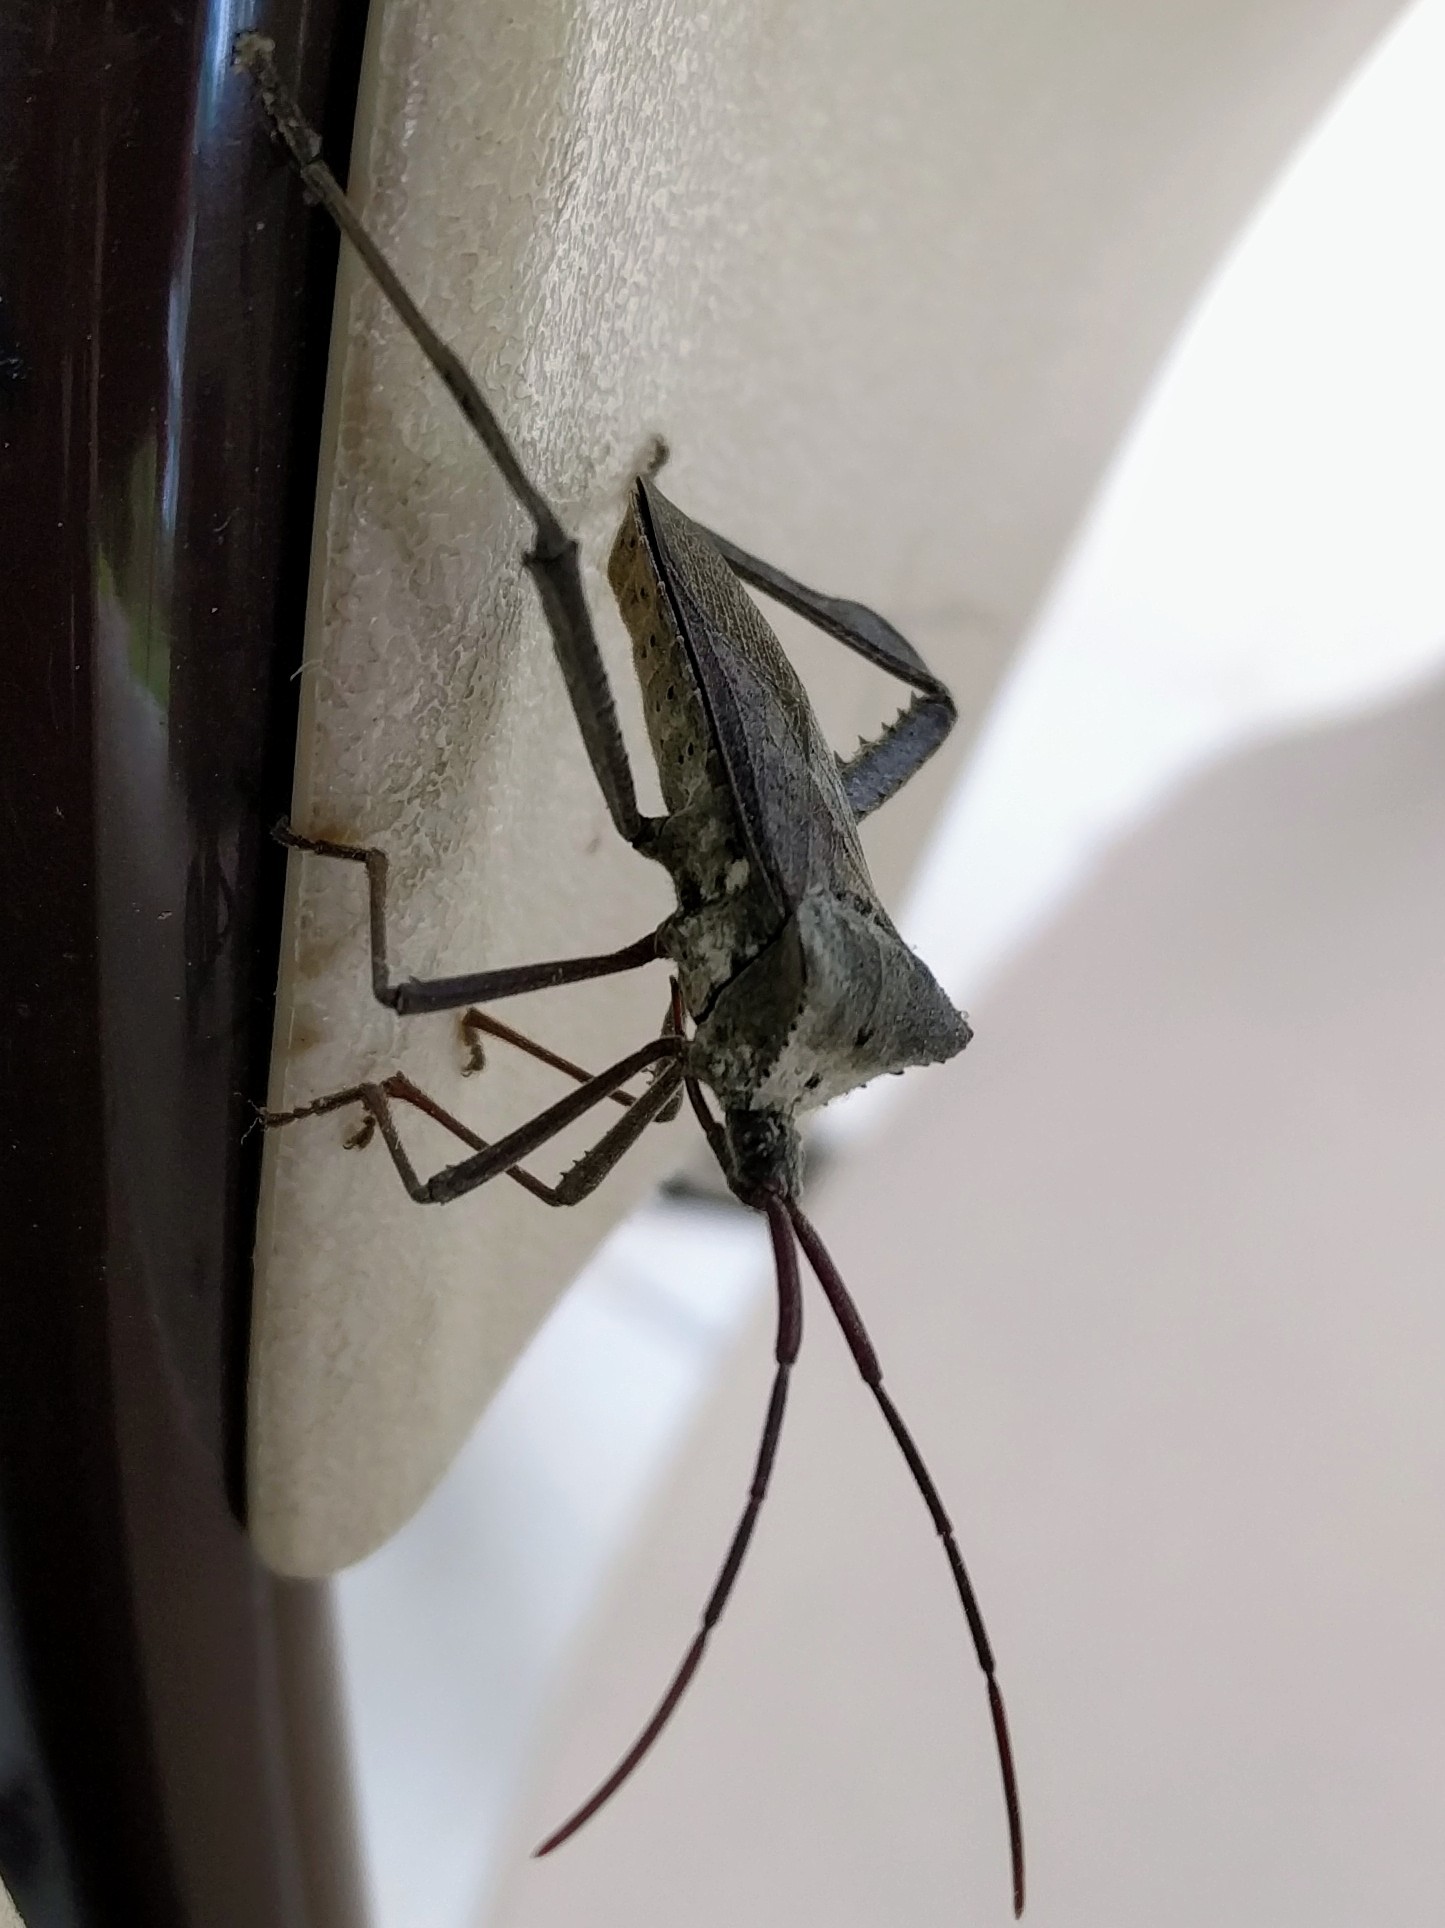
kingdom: Animalia
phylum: Arthropoda
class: Insecta
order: Hemiptera
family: Coreidae
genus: Acanthocephala
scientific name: Acanthocephala declivis
